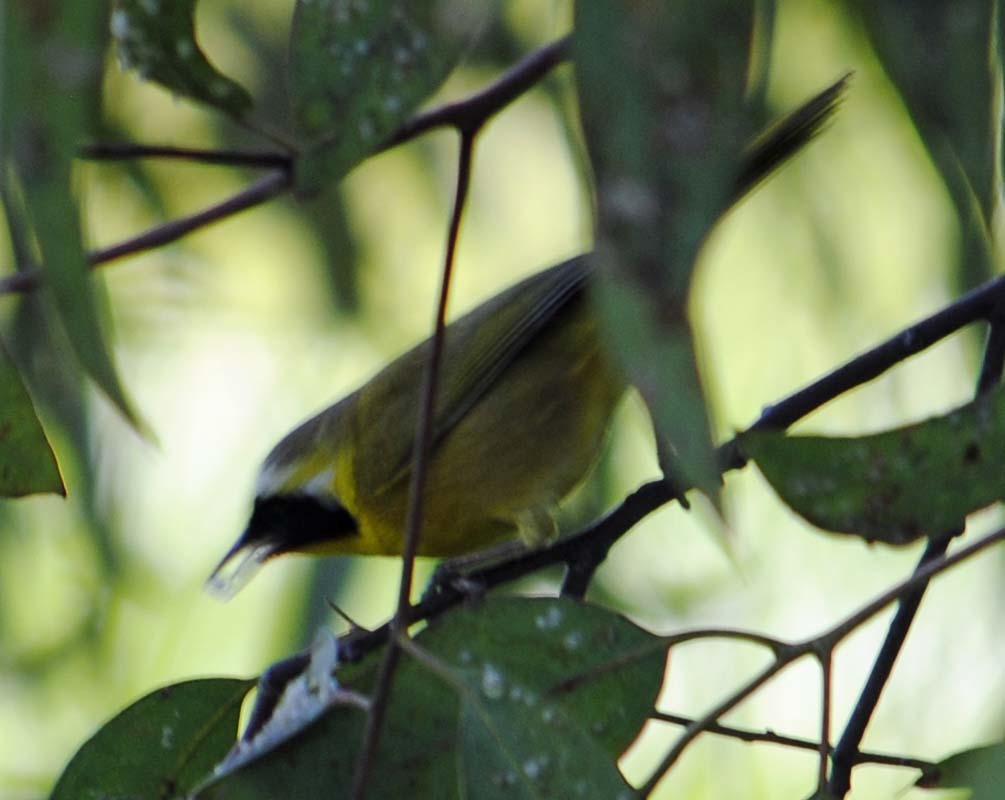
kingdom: Animalia
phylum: Chordata
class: Aves
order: Passeriformes
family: Parulidae
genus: Geothlypis
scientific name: Geothlypis trichas
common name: Common yellowthroat
